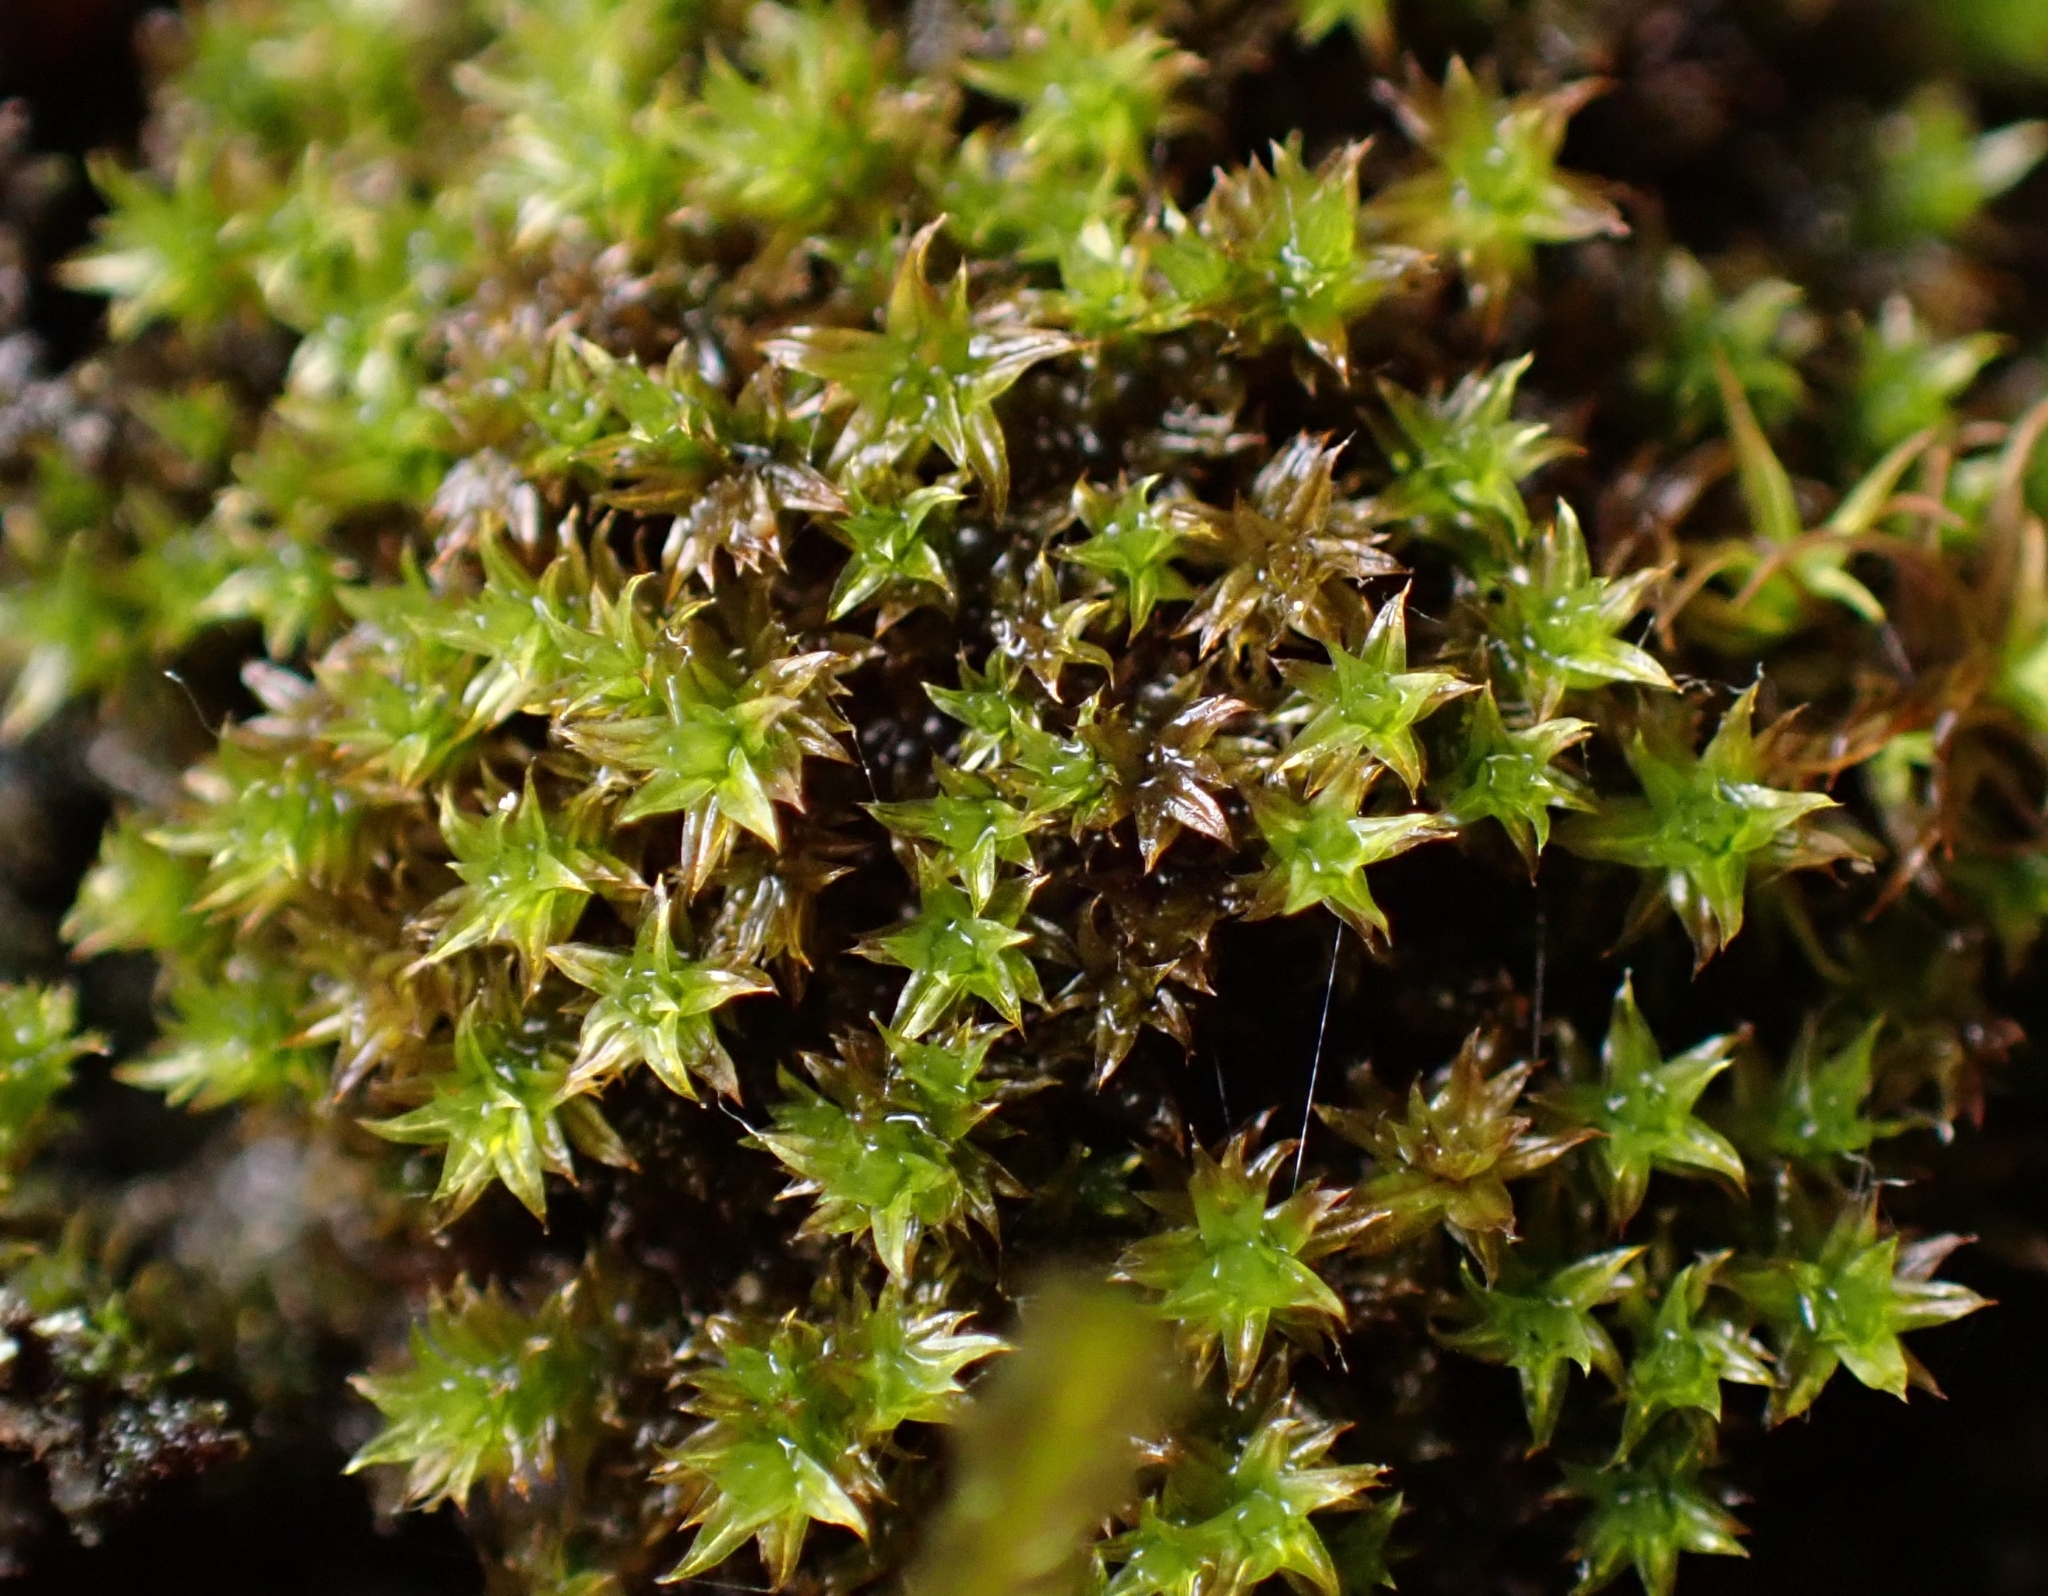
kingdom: Plantae
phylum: Bryophyta
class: Bryopsida
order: Orthotrichales
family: Orthotrichaceae
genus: Zygodon
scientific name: Zygodon viridissimus
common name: Green yoke moss
